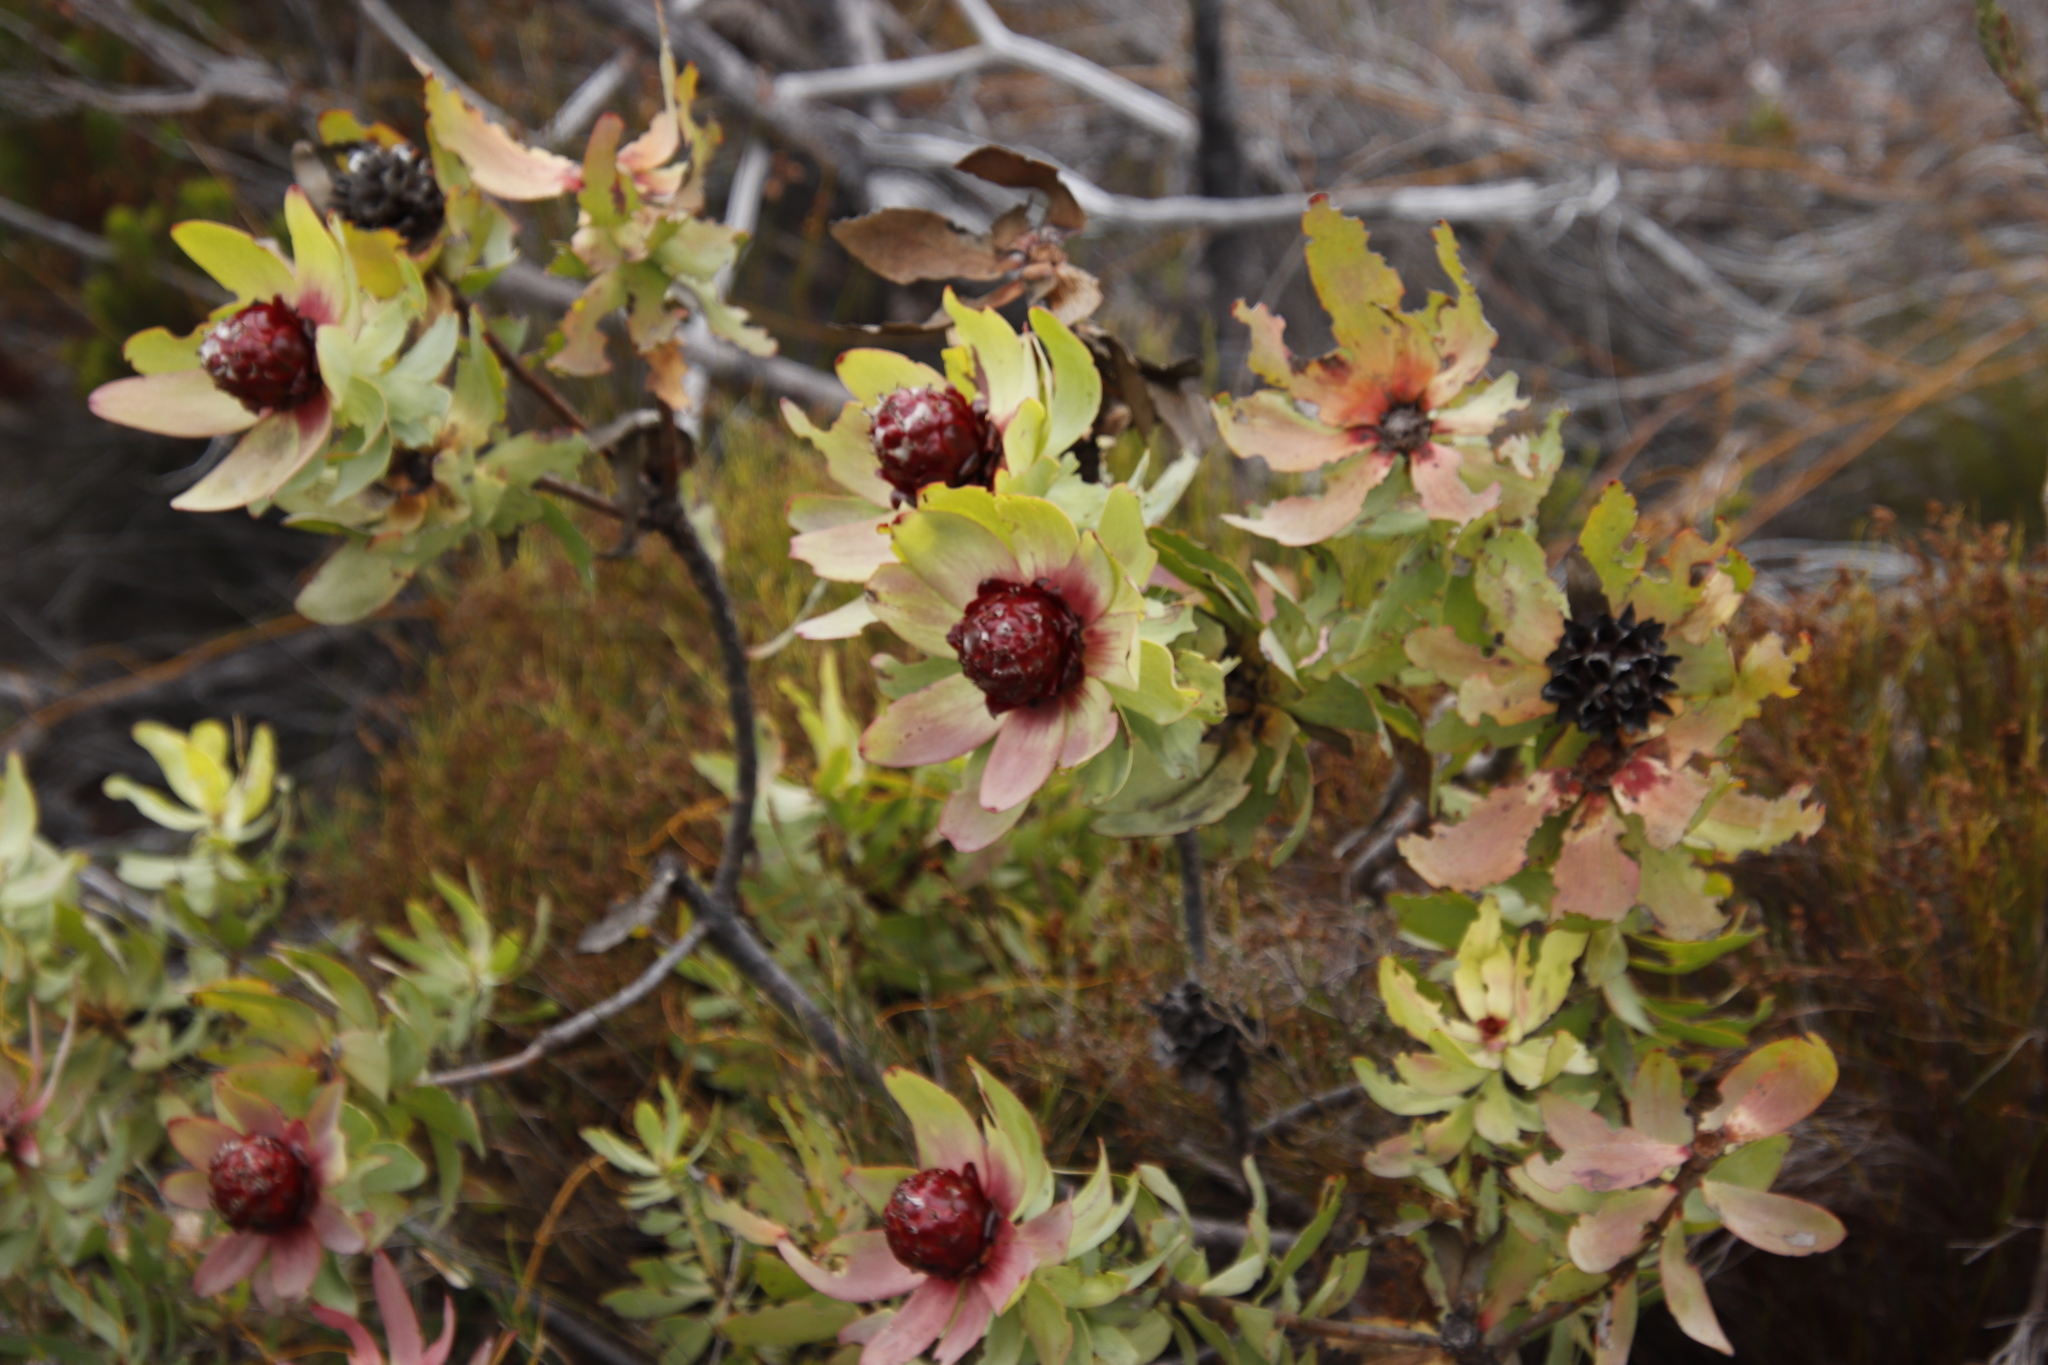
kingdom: Plantae
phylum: Tracheophyta
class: Magnoliopsida
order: Proteales
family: Proteaceae
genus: Leucadendron
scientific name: Leucadendron tinctum
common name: Spicy conebush
